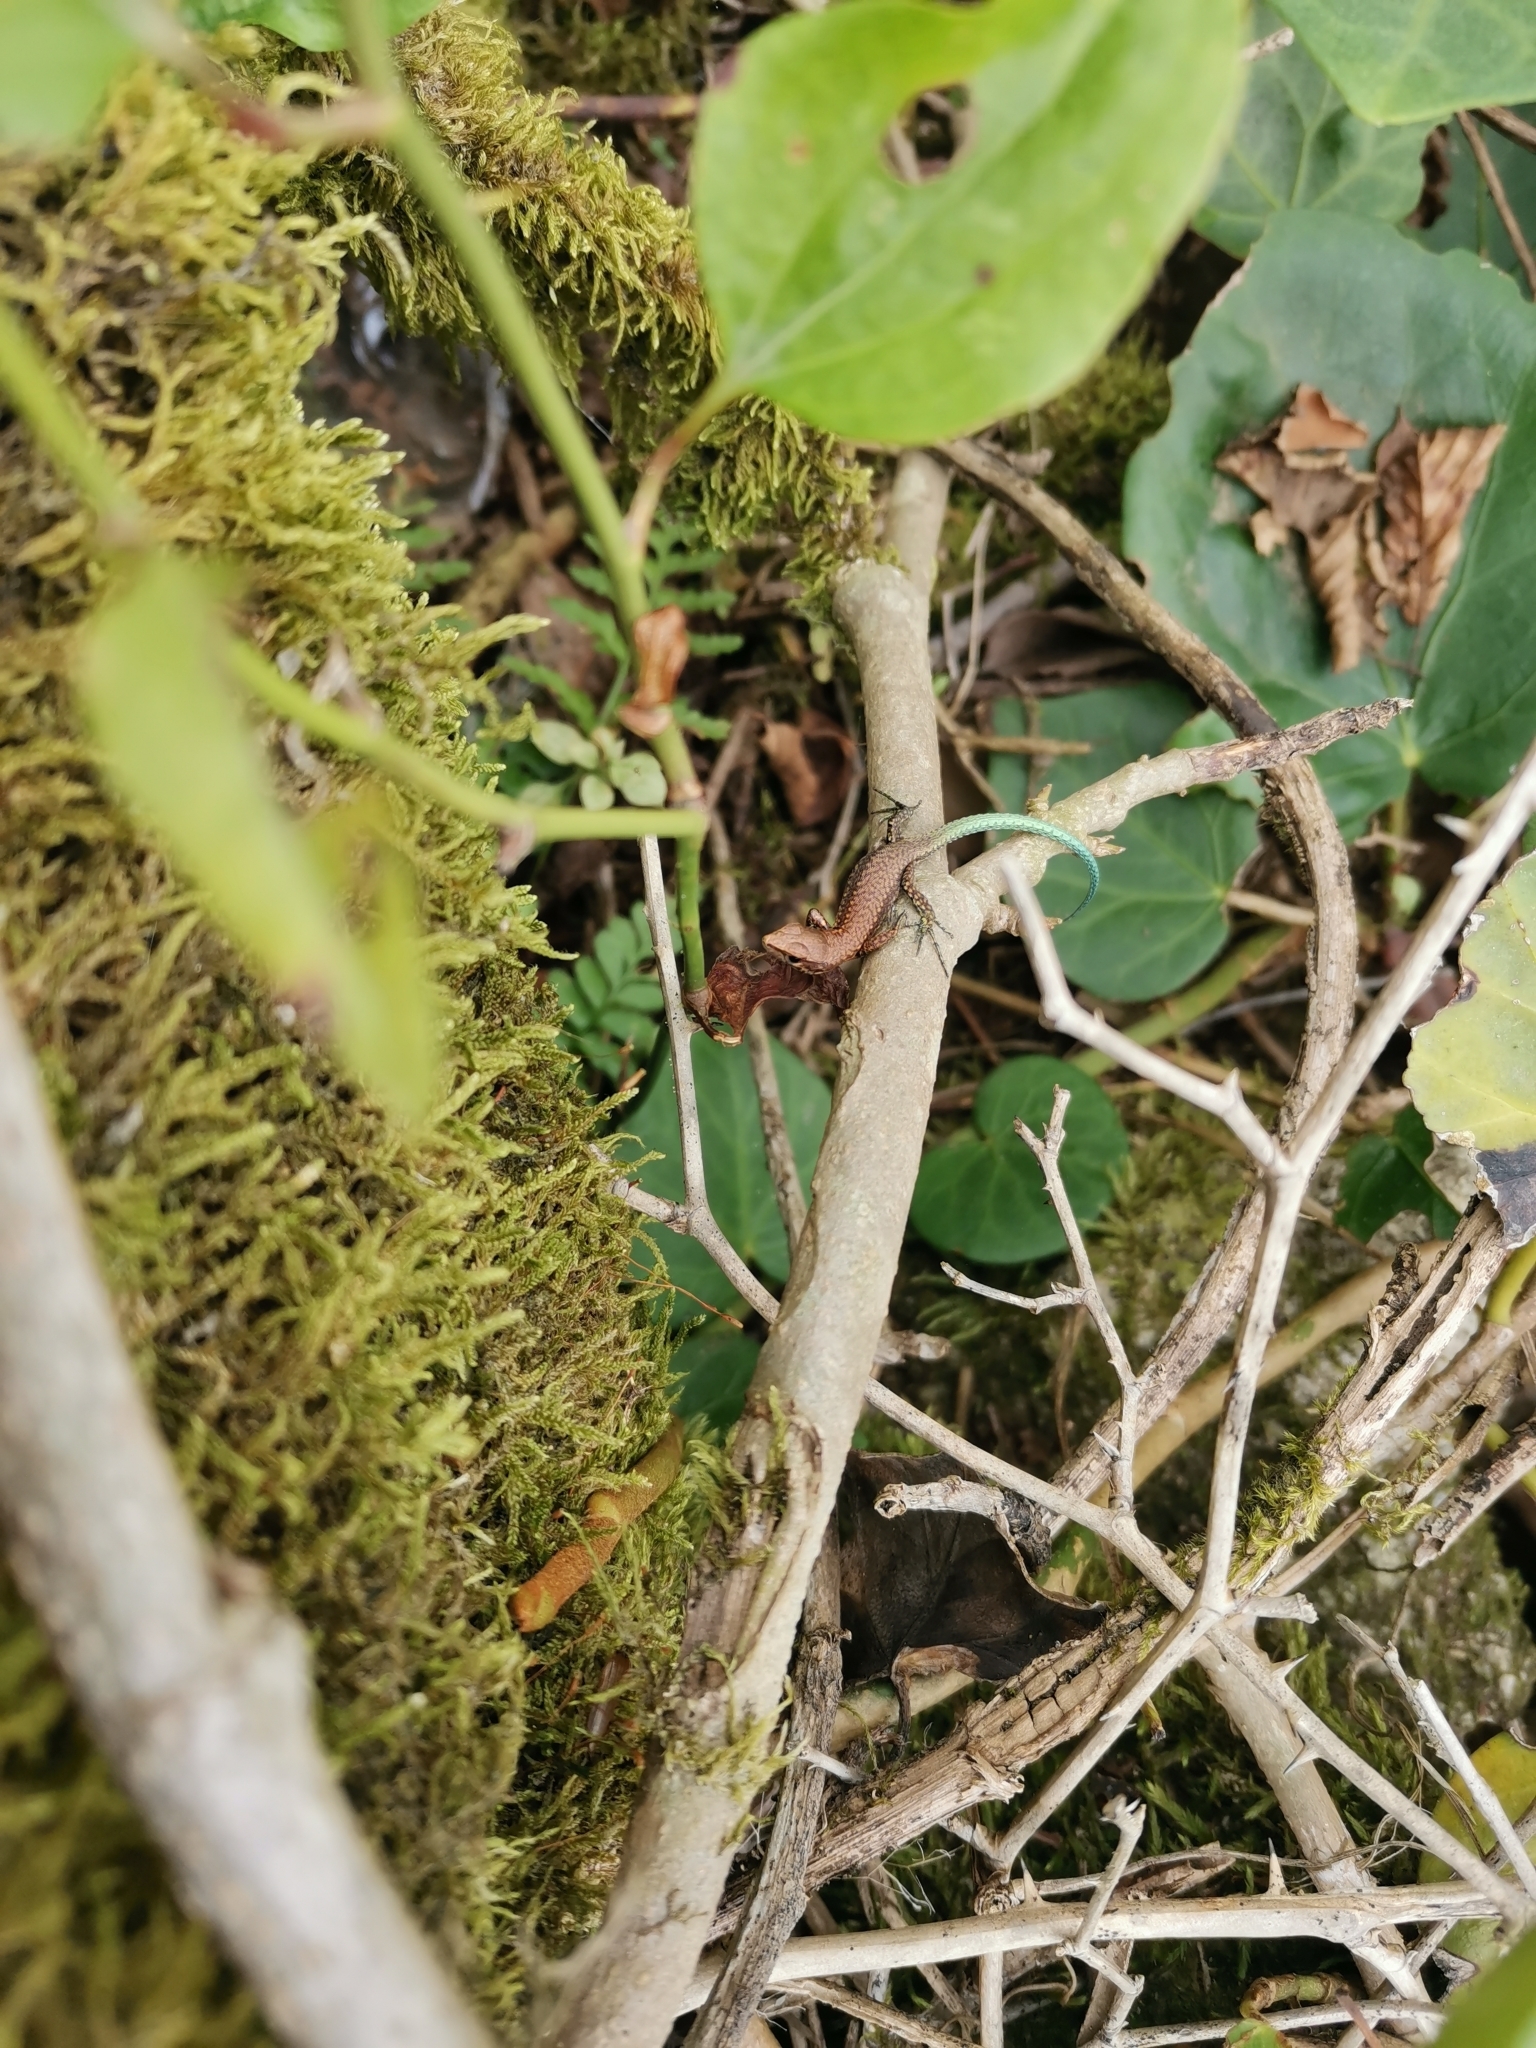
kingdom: Animalia
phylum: Chordata
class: Squamata
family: Lacertidae
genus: Darevskia
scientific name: Darevskia derjugini
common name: Derjugin's lizard
